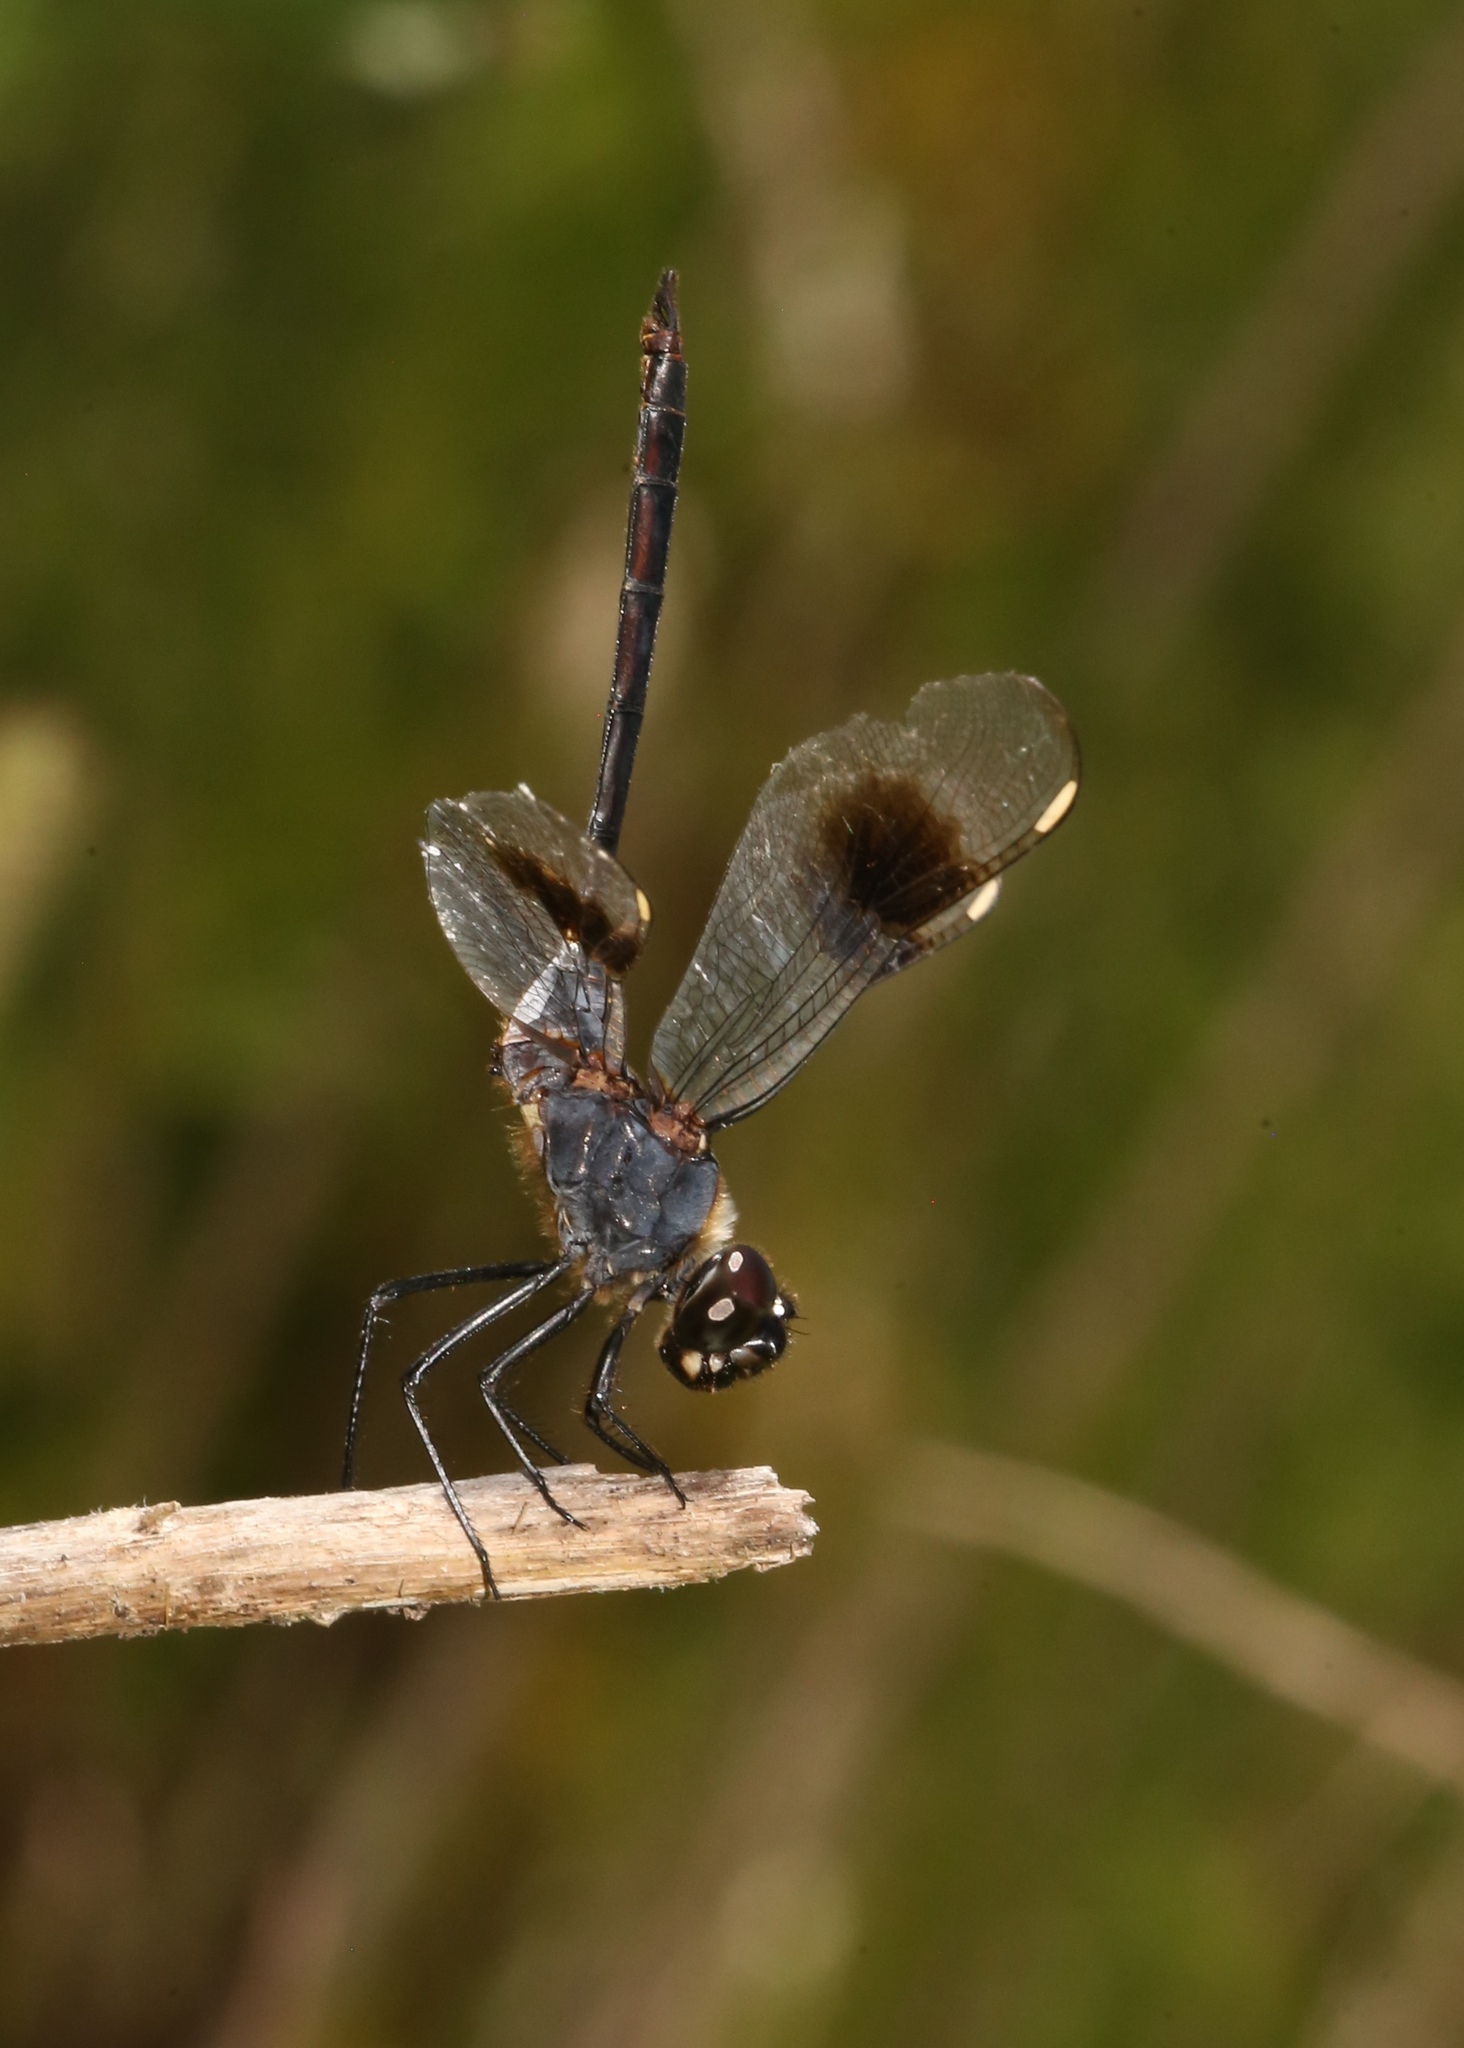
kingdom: Animalia
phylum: Arthropoda
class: Insecta
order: Odonata
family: Libellulidae
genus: Brachymesia
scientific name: Brachymesia gravida
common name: Four-spotted pennant
